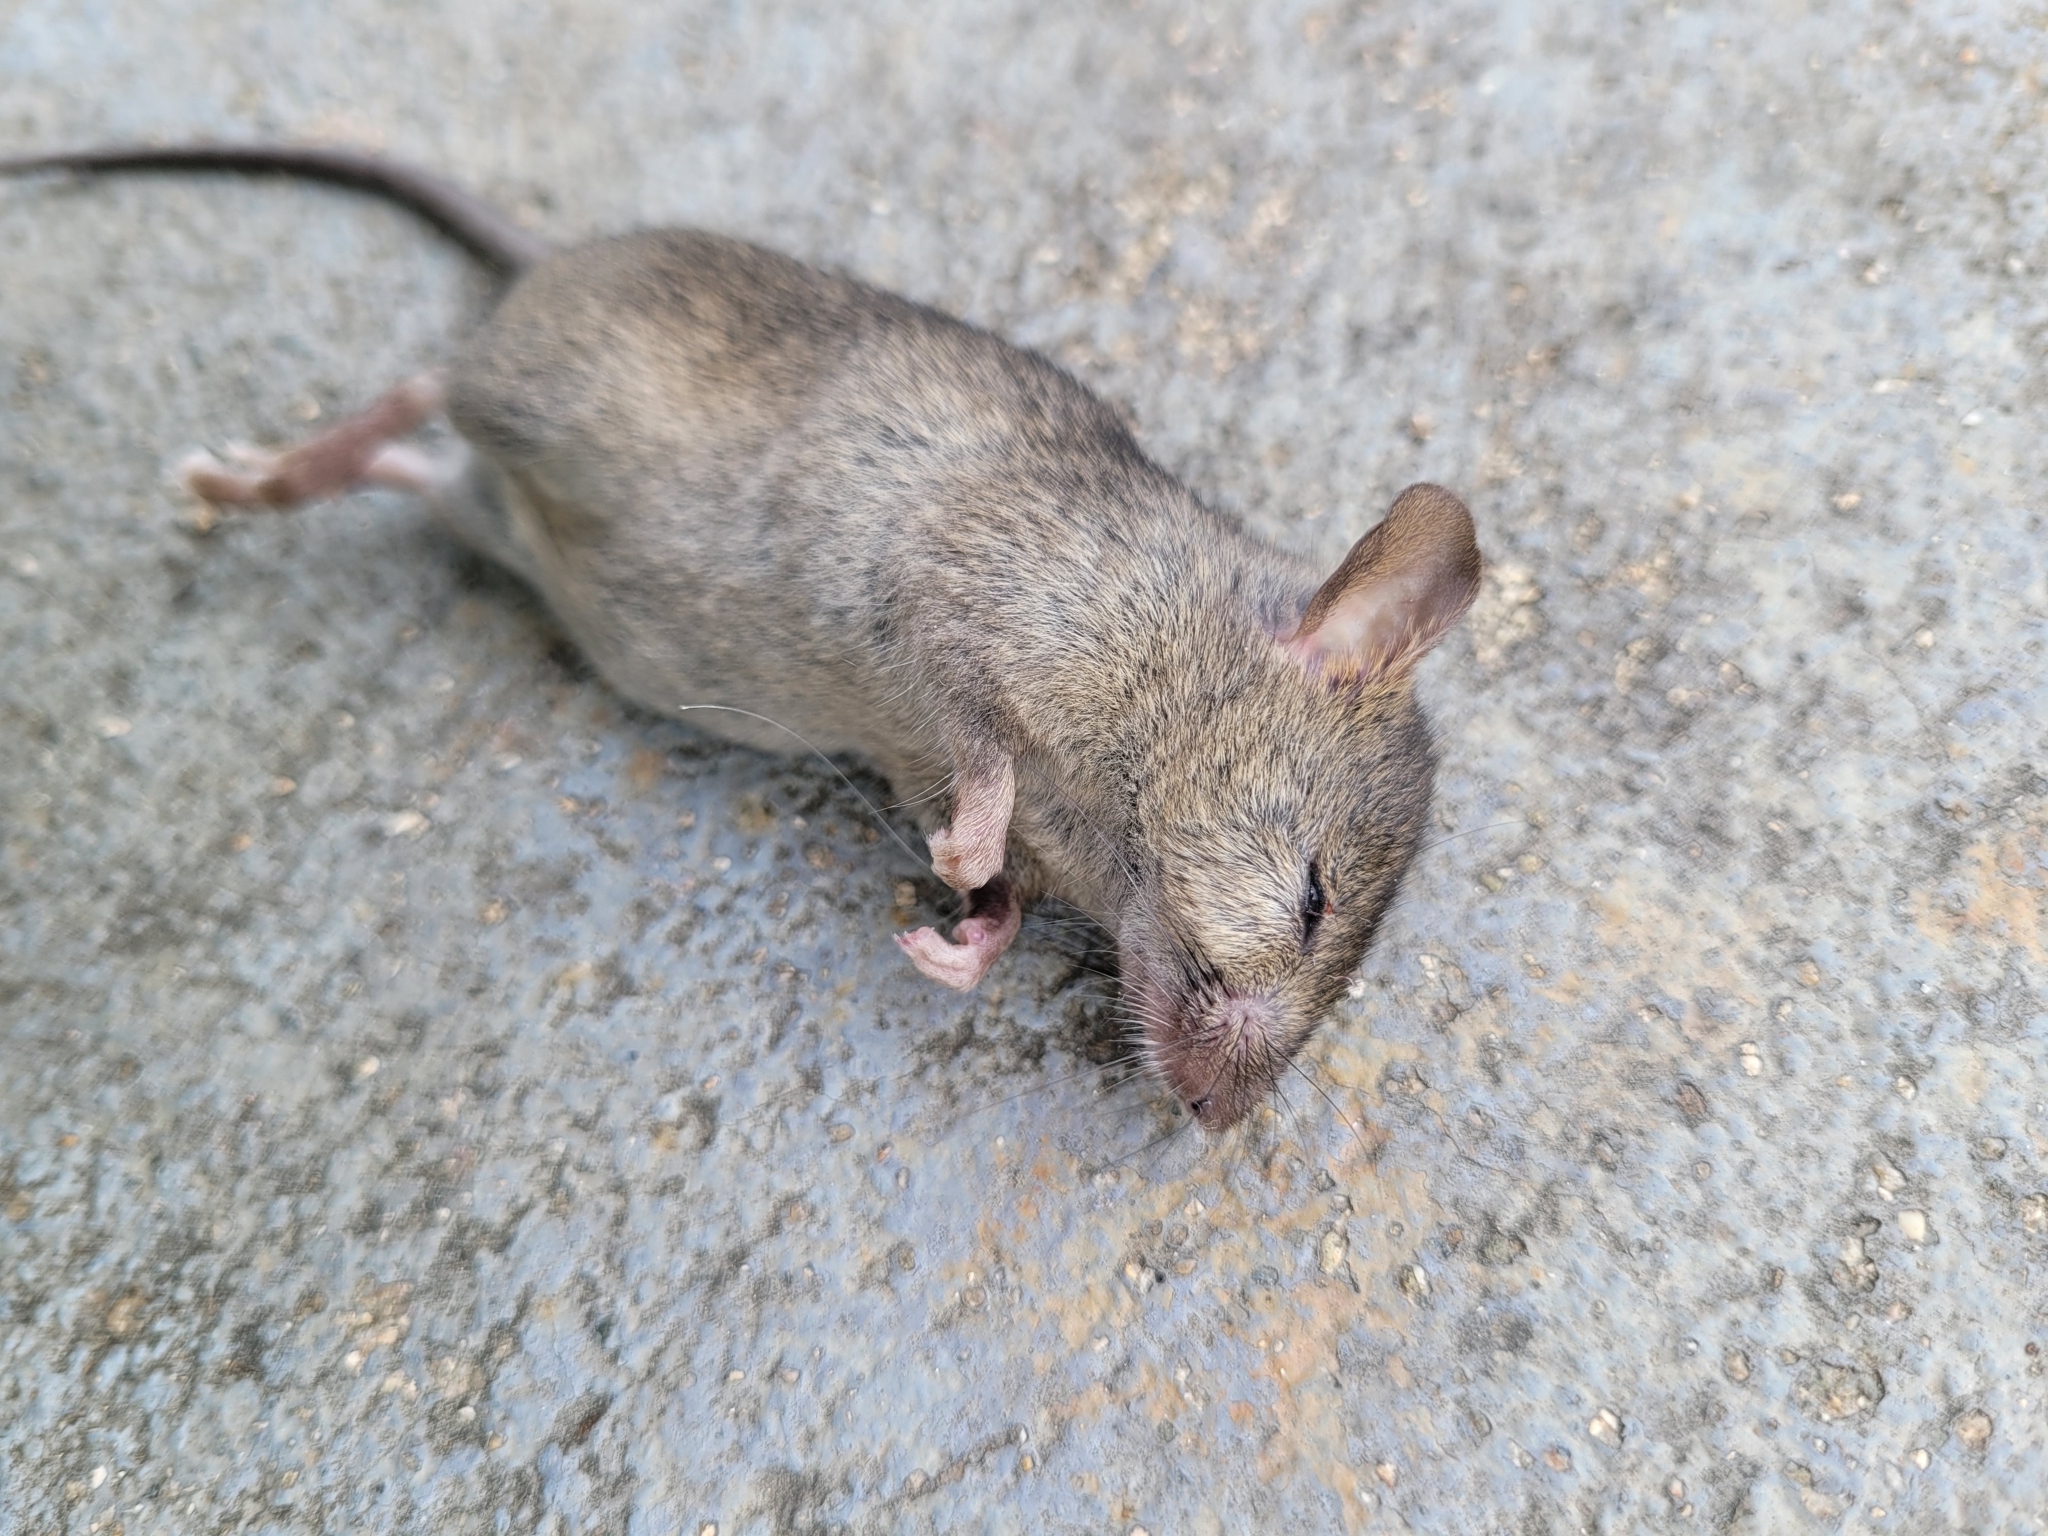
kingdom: Animalia
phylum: Chordata
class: Mammalia
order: Rodentia
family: Muridae
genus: Mus
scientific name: Mus musculus
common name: House mouse
